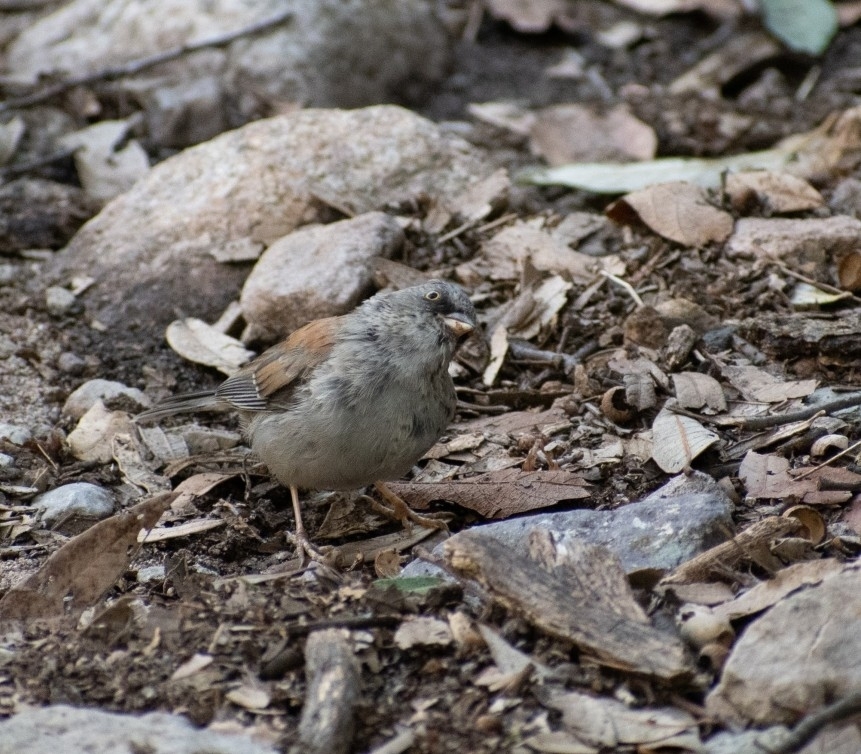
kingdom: Animalia
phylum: Chordata
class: Aves
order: Passeriformes
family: Passerellidae
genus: Junco
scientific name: Junco phaeonotus
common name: Yellow-eyed junco
